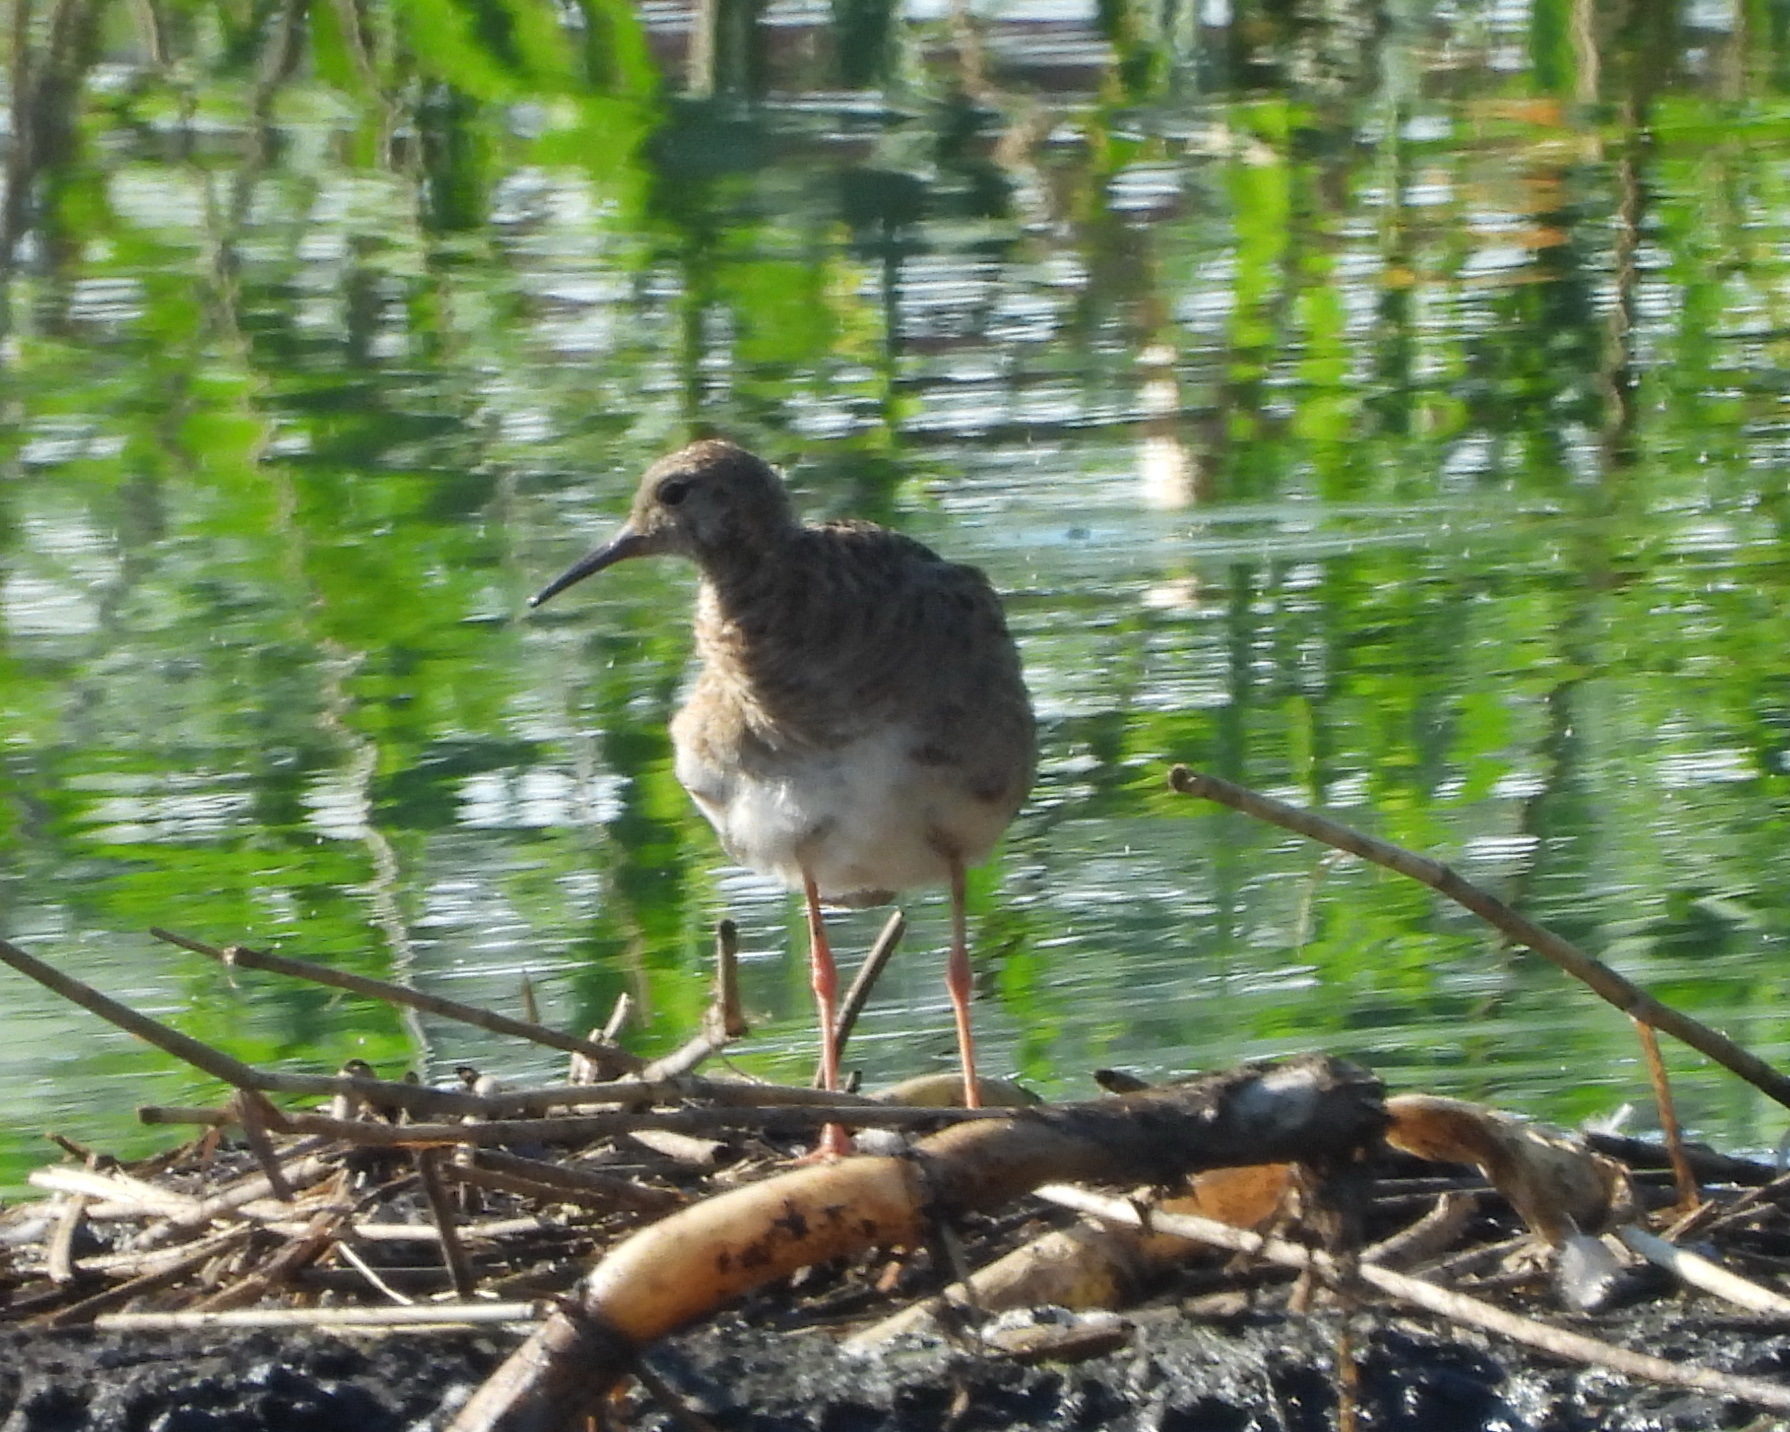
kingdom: Animalia
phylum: Chordata
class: Aves
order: Charadriiformes
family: Scolopacidae
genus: Calidris
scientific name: Calidris pugnax
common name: Ruff
